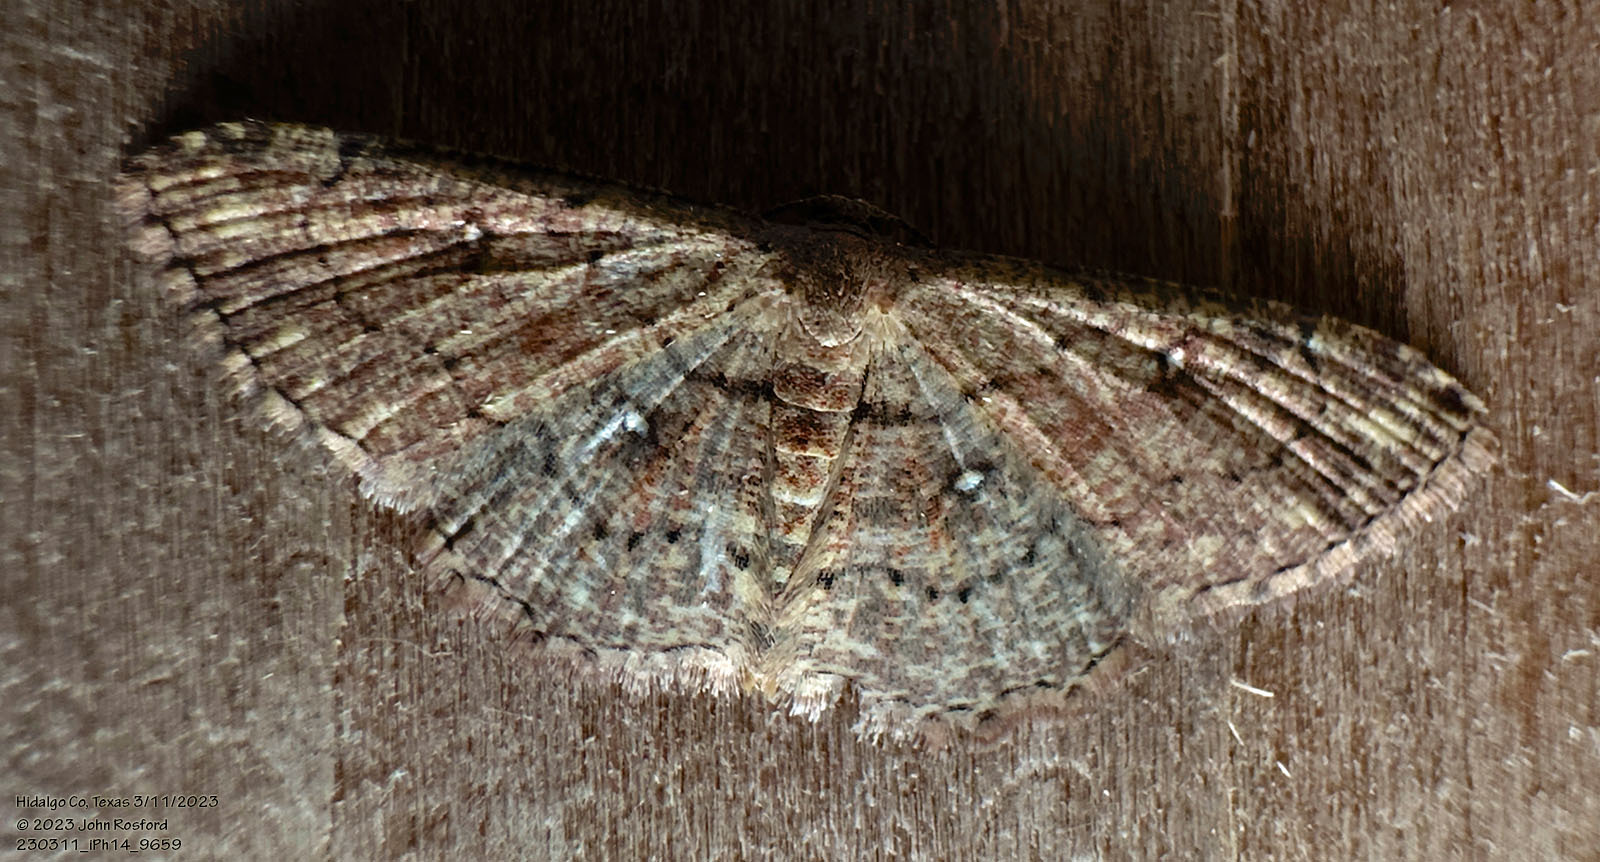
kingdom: Animalia
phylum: Arthropoda
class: Insecta
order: Lepidoptera
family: Geometridae
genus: Cyclophora
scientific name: Cyclophora nanaria
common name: Cankerworm
